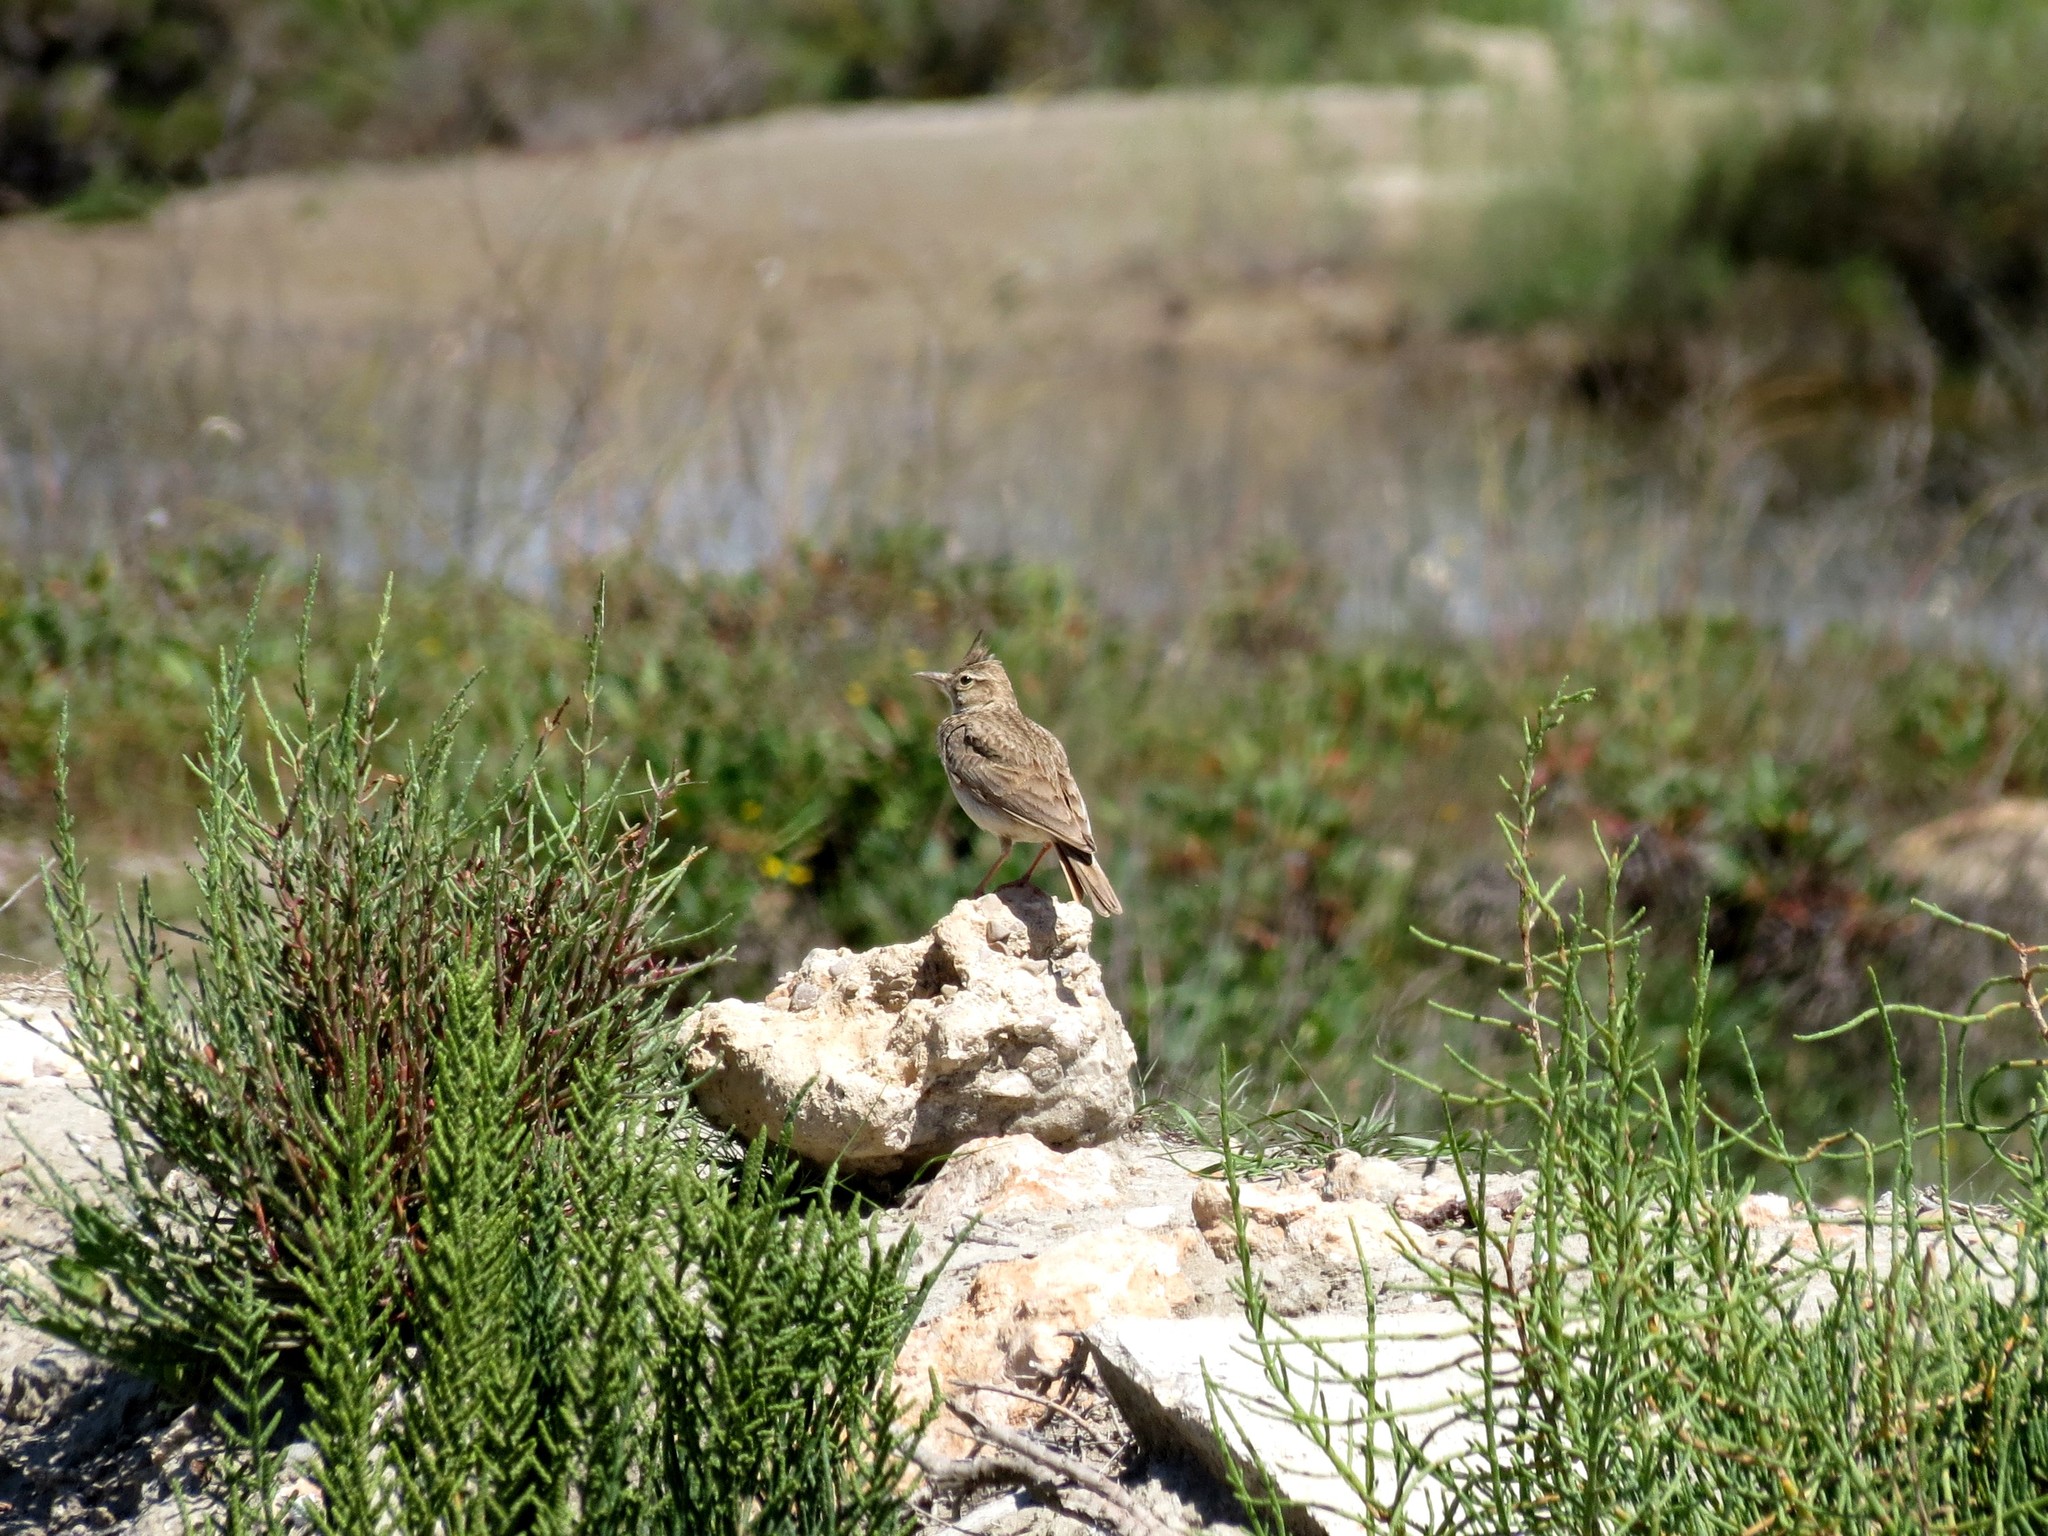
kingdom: Animalia
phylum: Chordata
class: Aves
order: Passeriformes
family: Alaudidae
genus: Galerida
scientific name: Galerida cristata
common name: Crested lark
